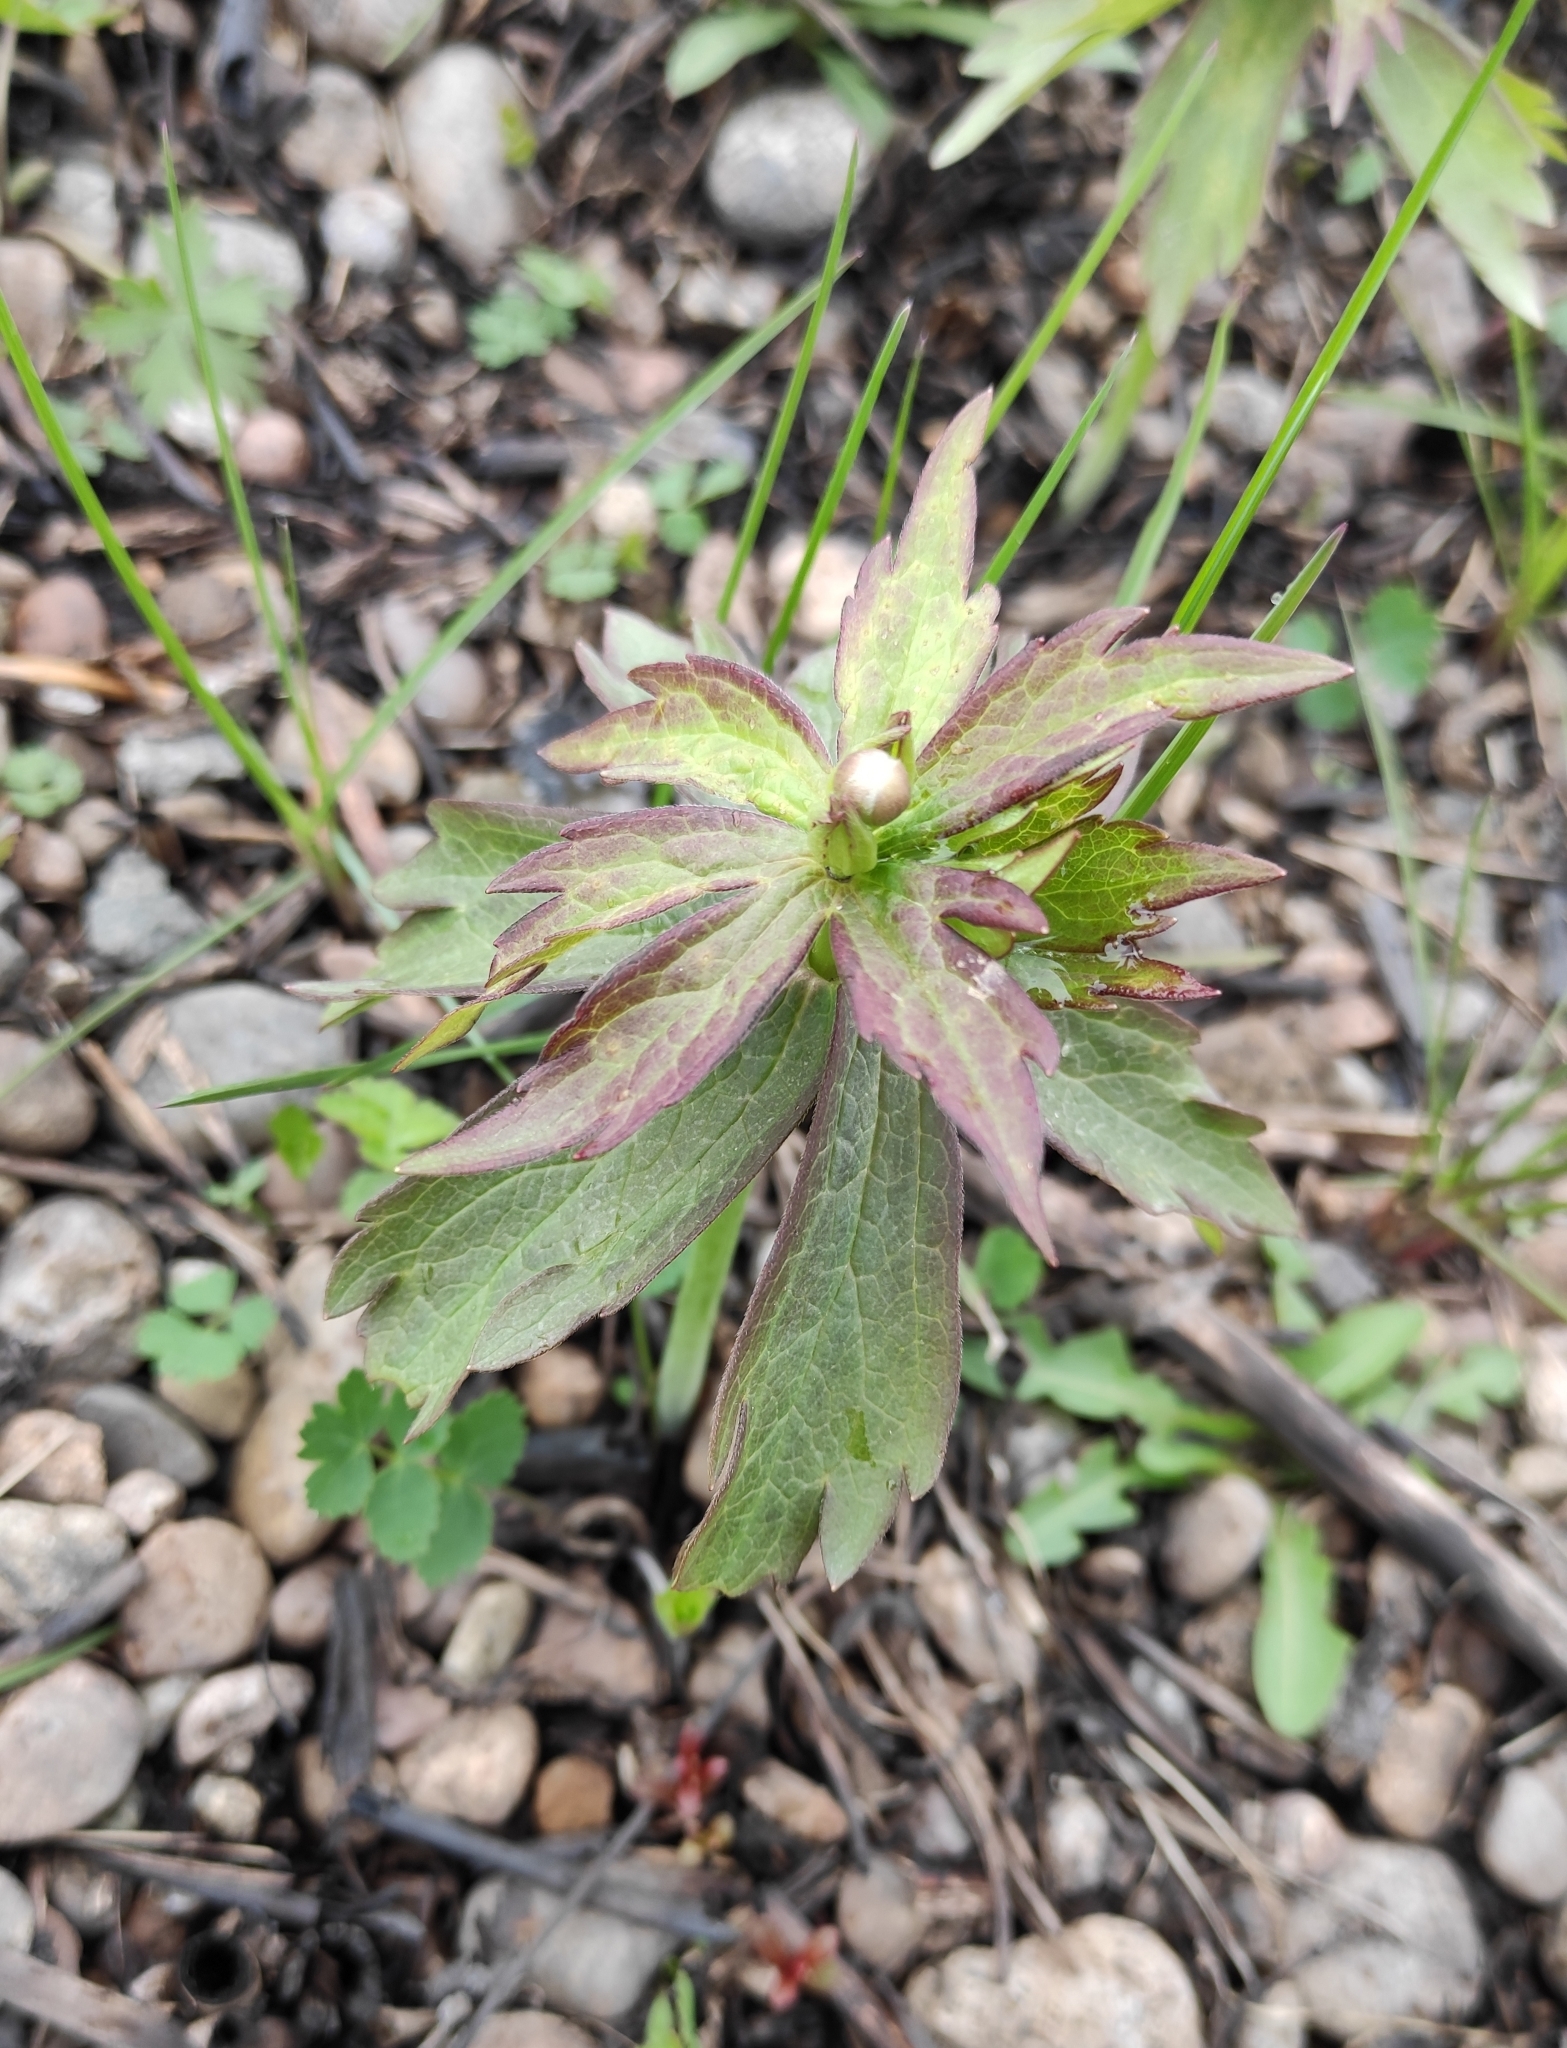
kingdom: Plantae
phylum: Tracheophyta
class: Magnoliopsida
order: Ranunculales
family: Ranunculaceae
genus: Anemonastrum
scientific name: Anemonastrum dichotomum
